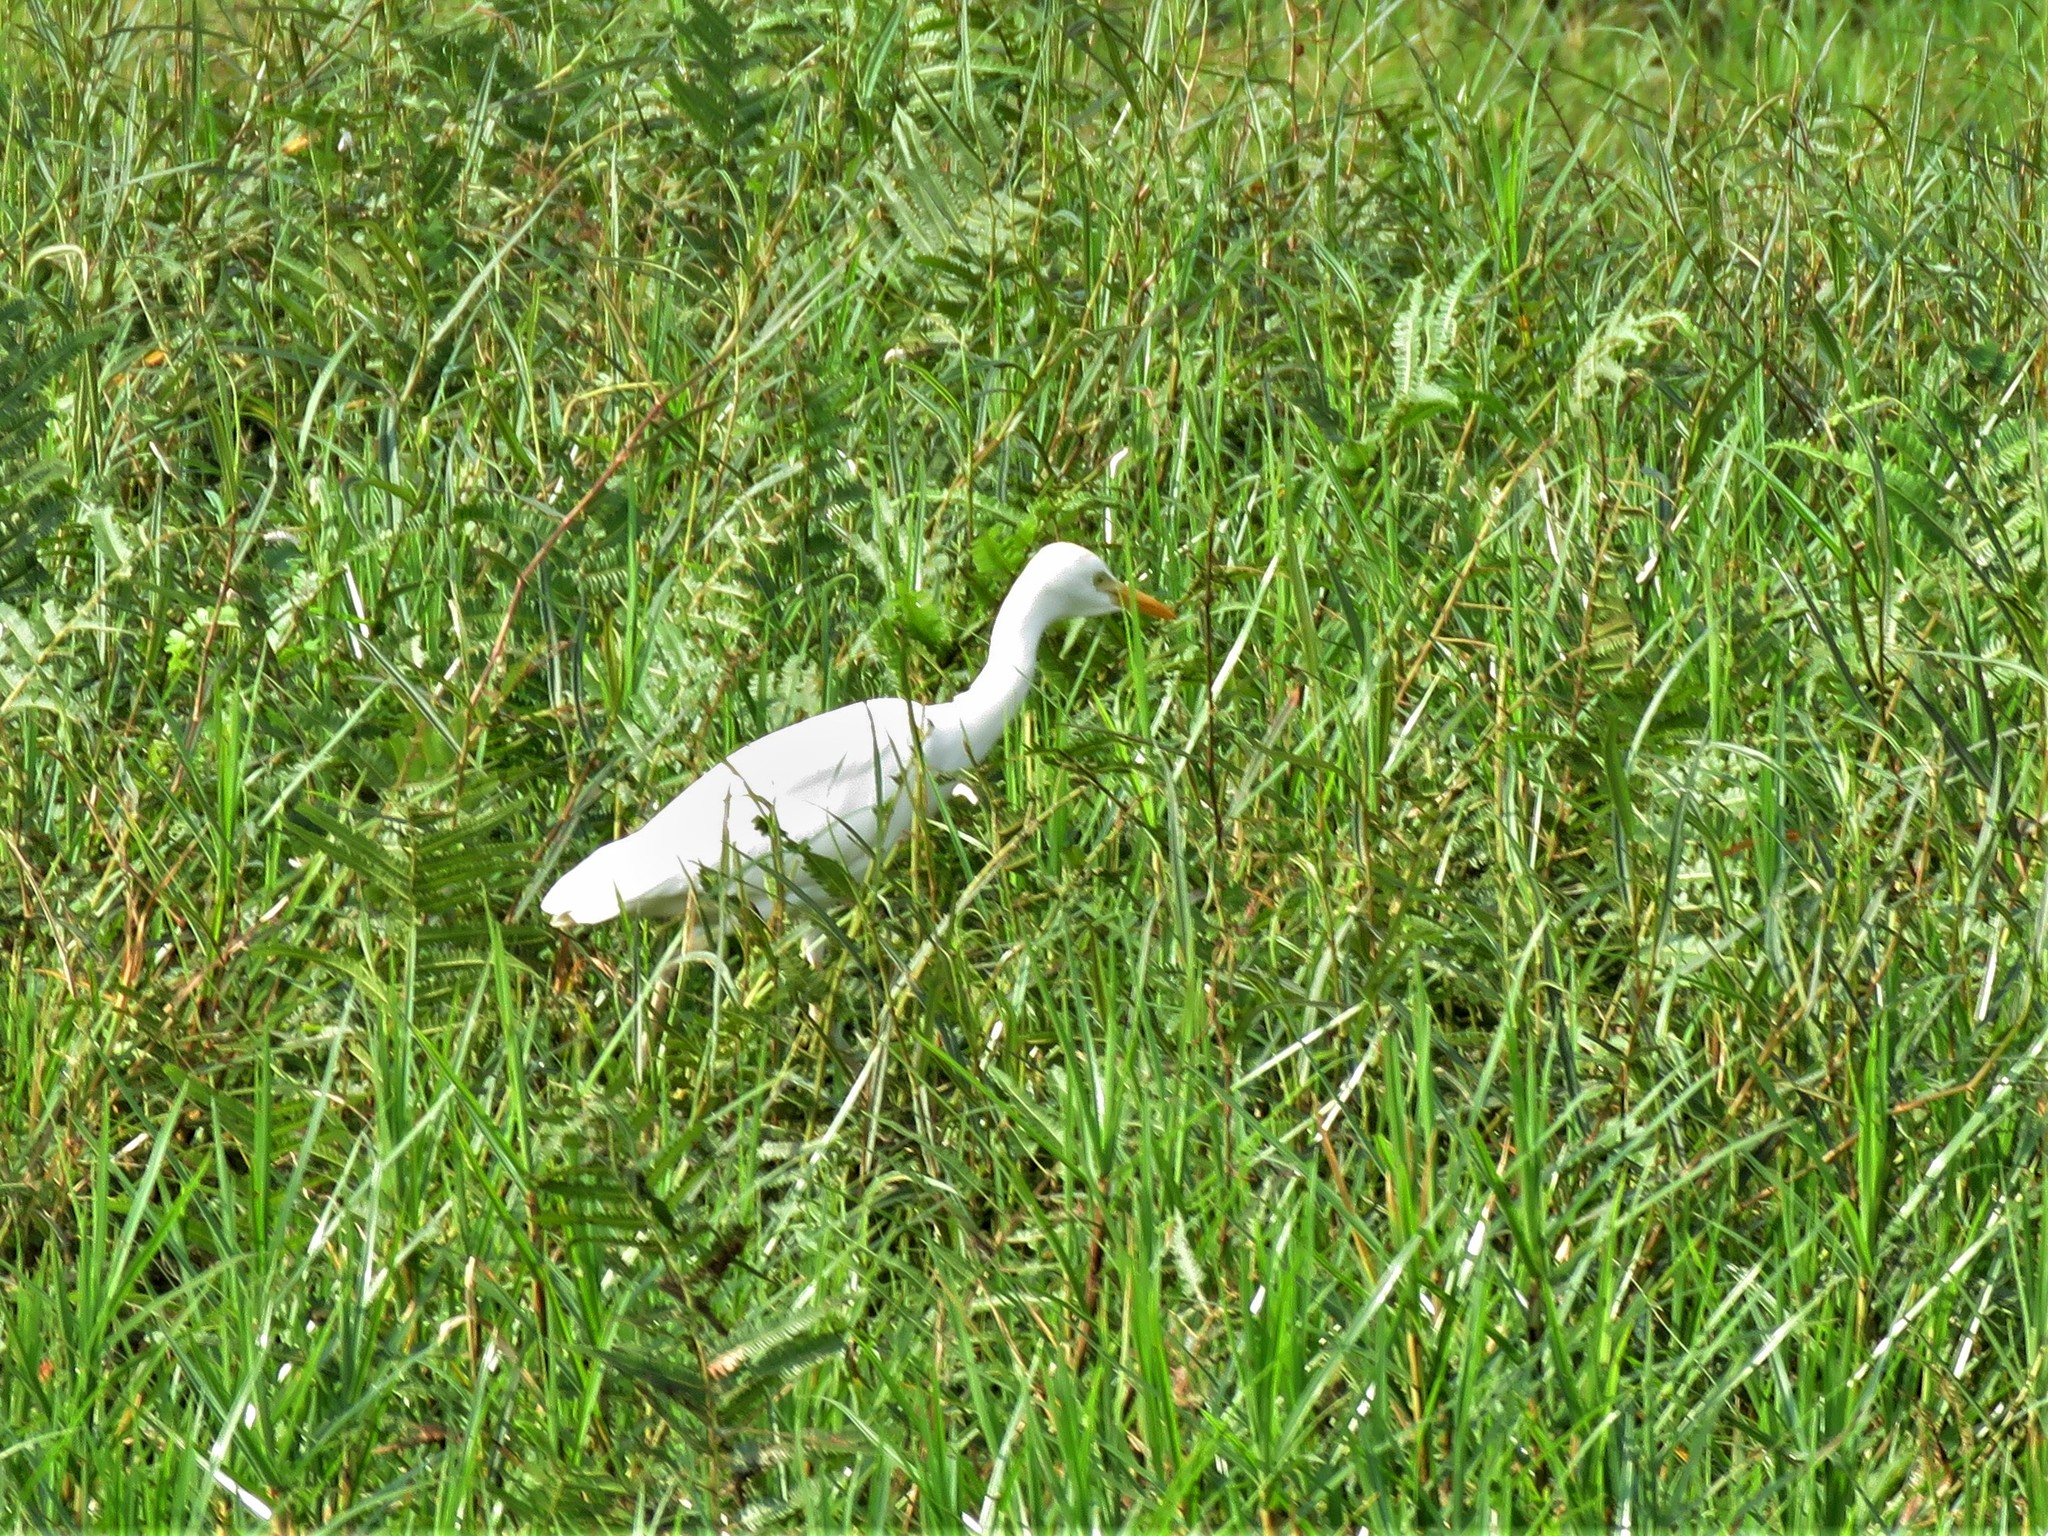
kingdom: Animalia
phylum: Chordata
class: Aves
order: Pelecaniformes
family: Ardeidae
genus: Bubulcus
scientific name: Bubulcus ibis
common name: Cattle egret
